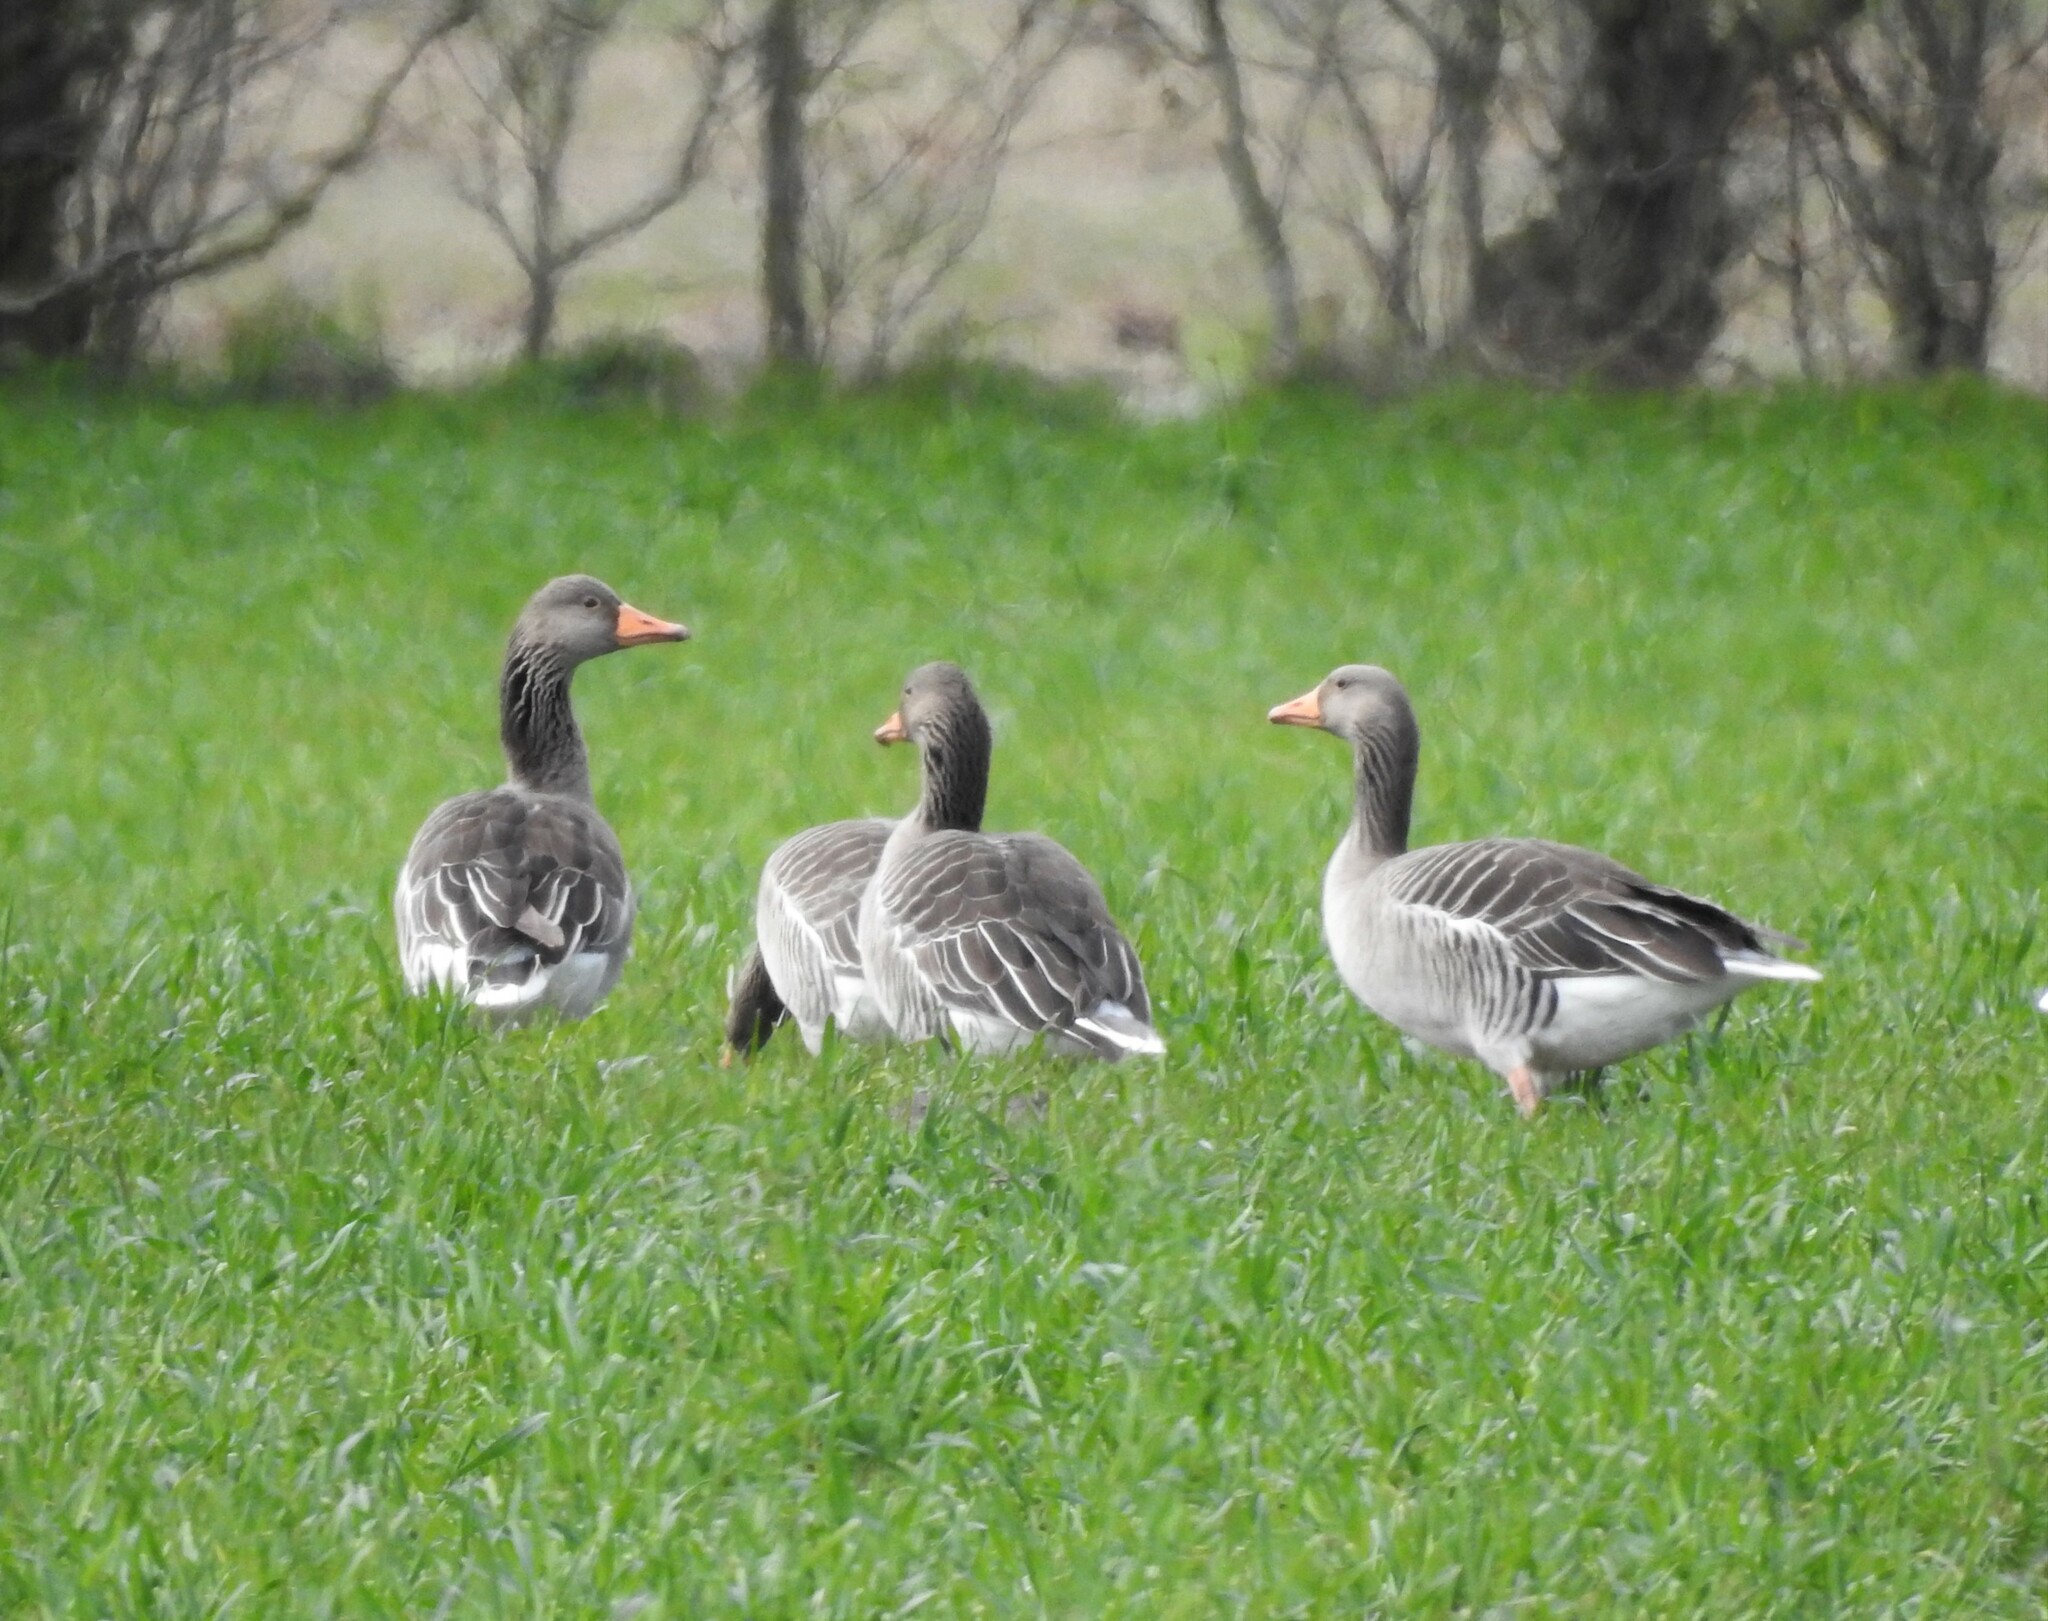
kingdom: Animalia
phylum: Chordata
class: Aves
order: Anseriformes
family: Anatidae
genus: Anser
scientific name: Anser anser
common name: Greylag goose
